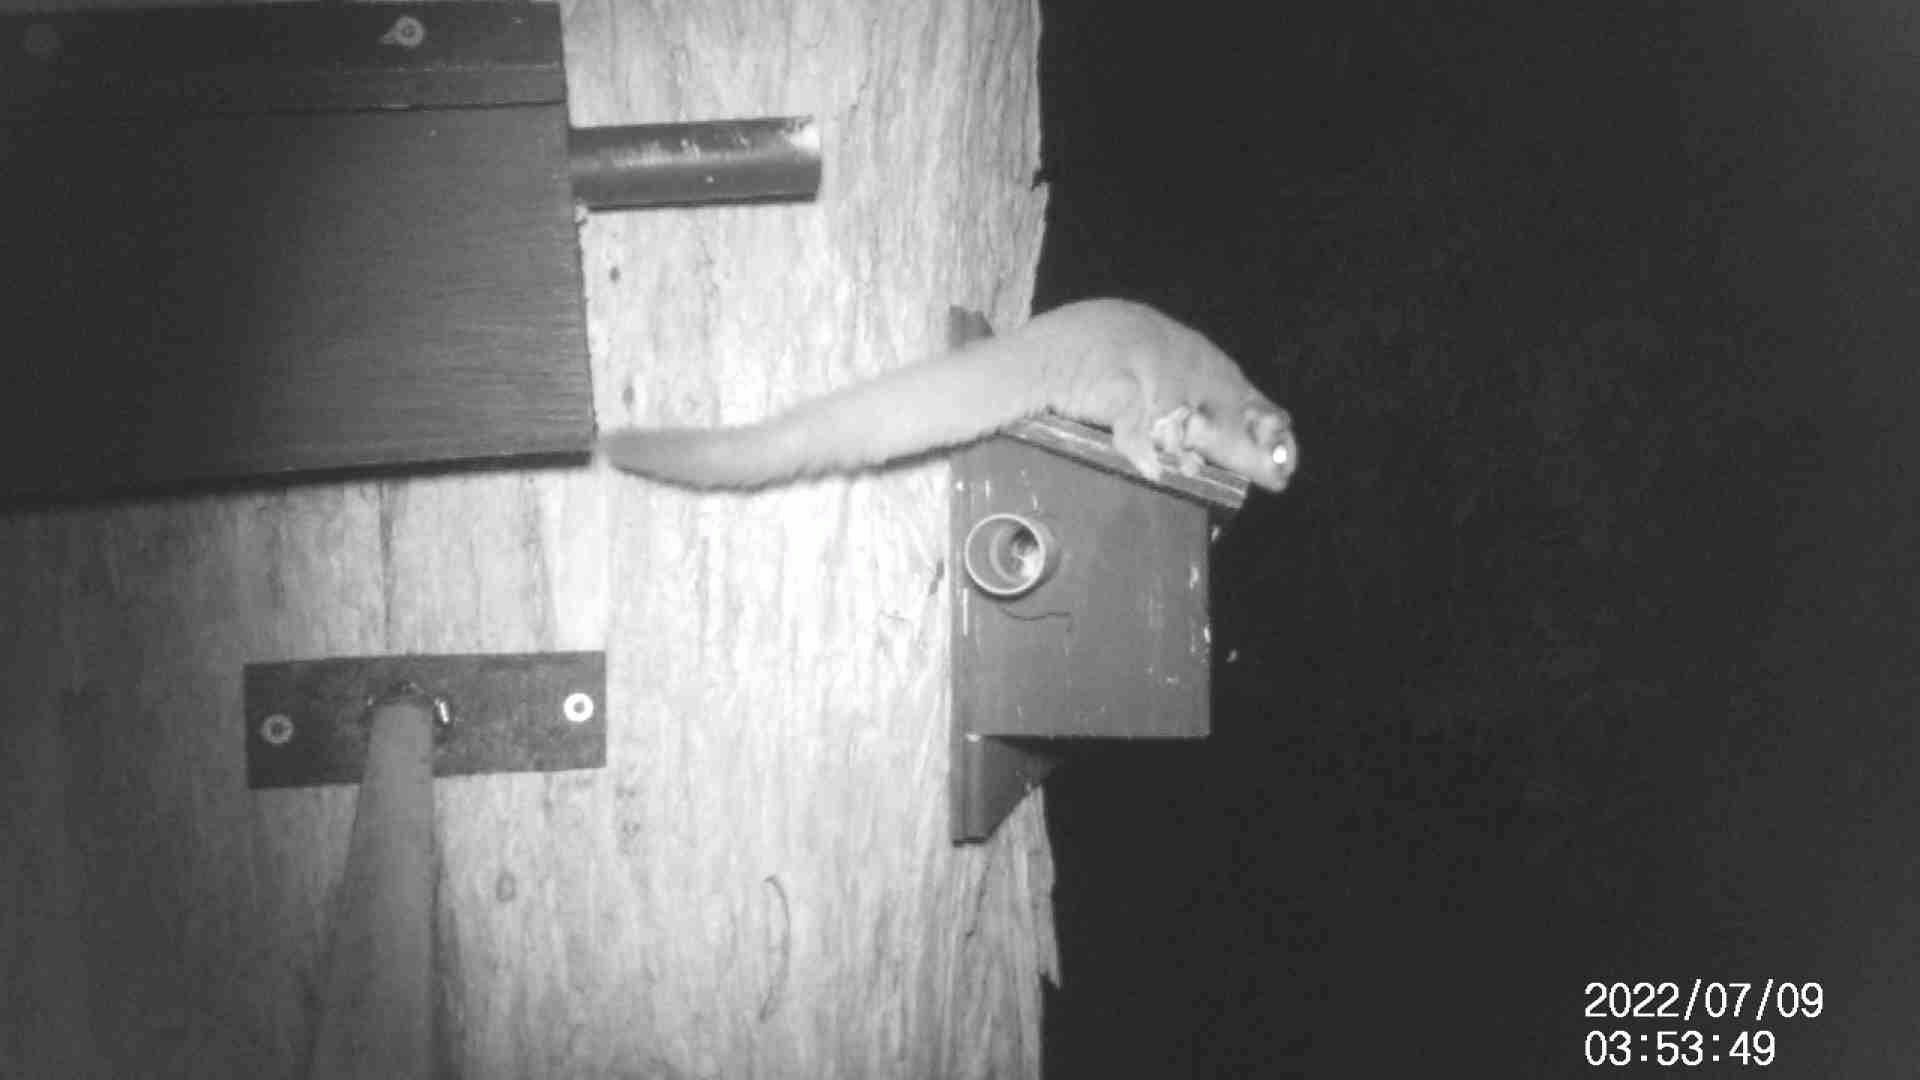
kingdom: Animalia
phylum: Chordata
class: Mammalia
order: Diprotodontia
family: Petauridae
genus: Petaurus
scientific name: Petaurus breviceps
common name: Sugar glider
